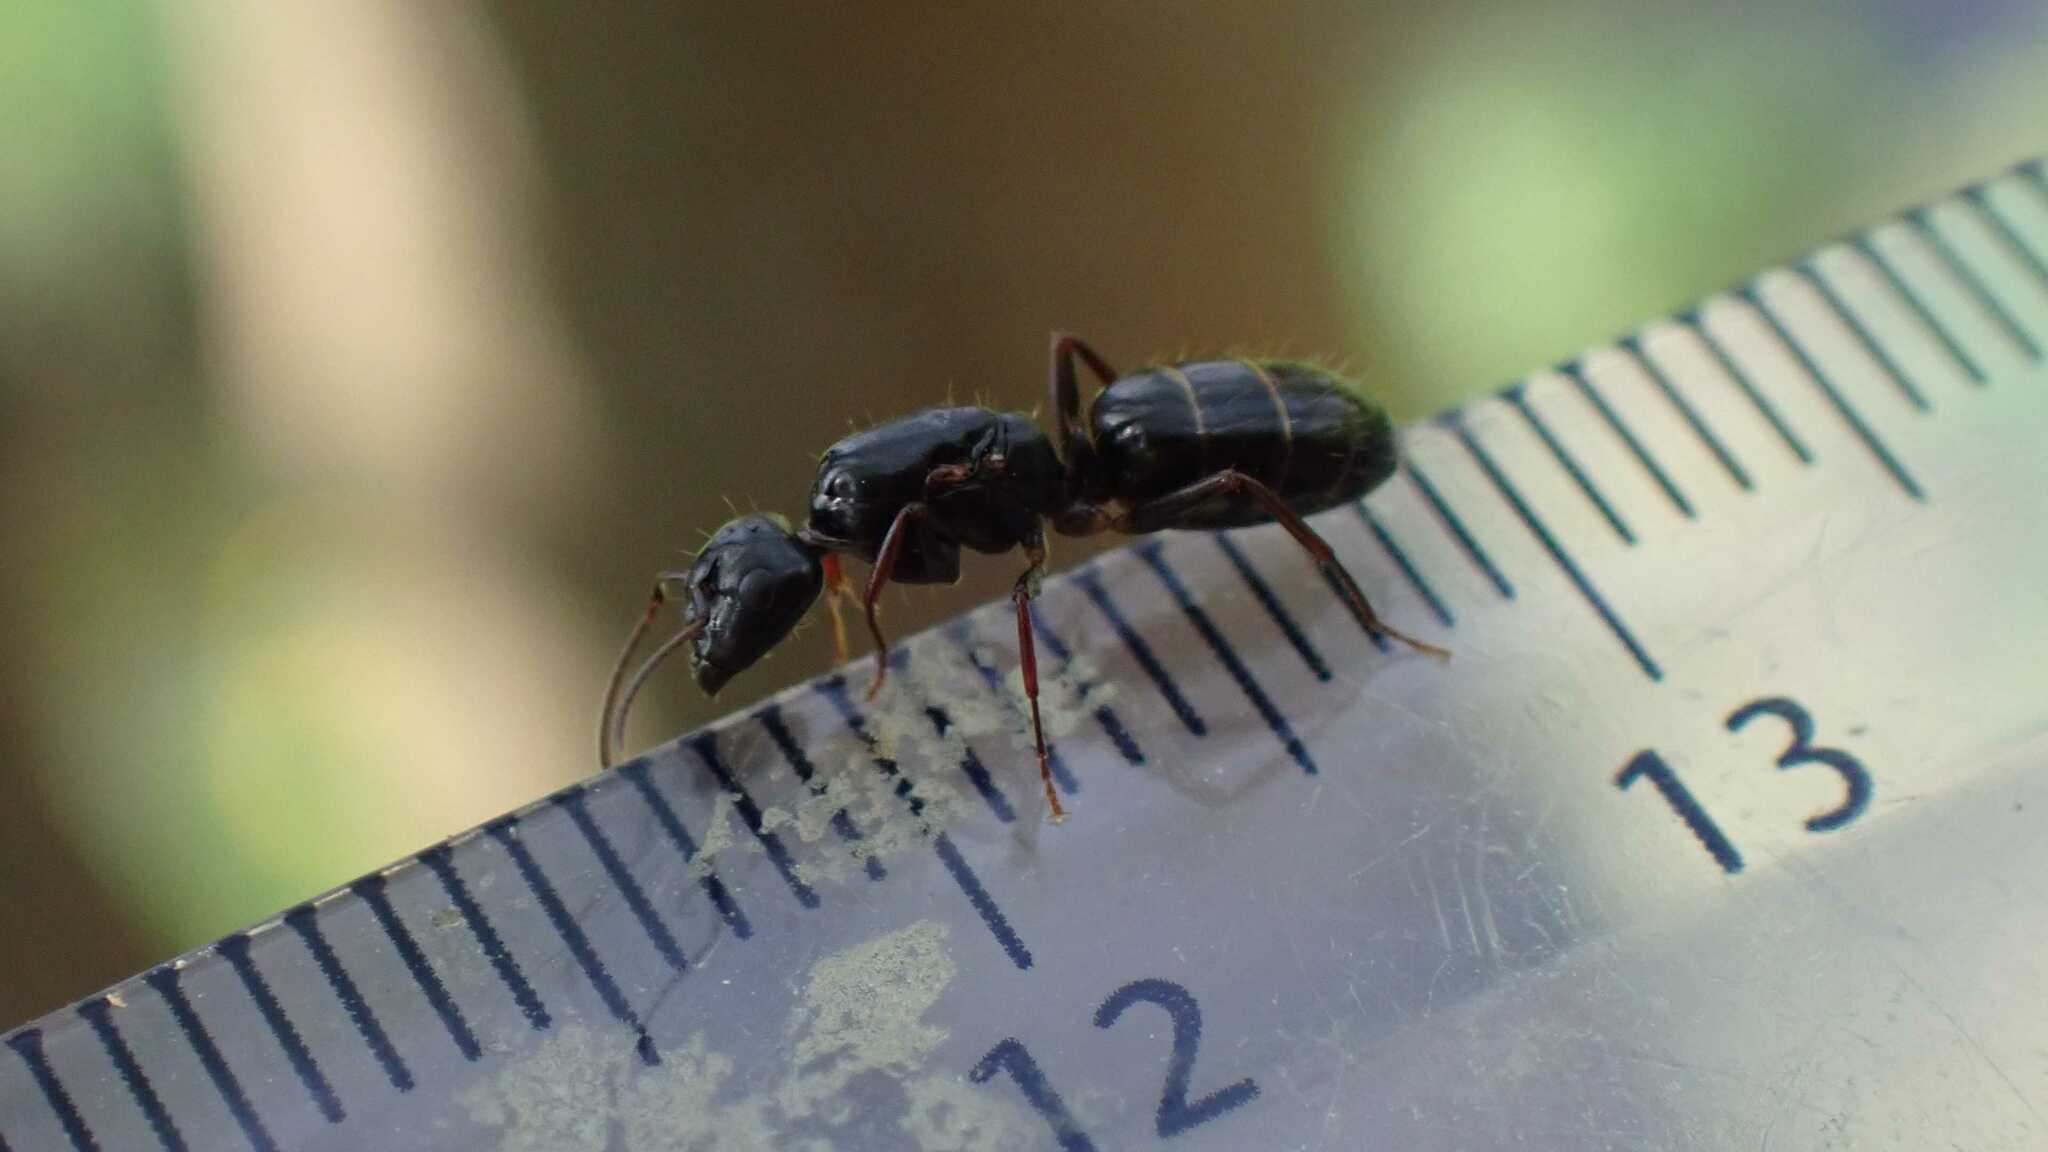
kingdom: Animalia
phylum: Arthropoda
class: Insecta
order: Hymenoptera
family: Formicidae
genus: Camponotus
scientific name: Camponotus fallax
